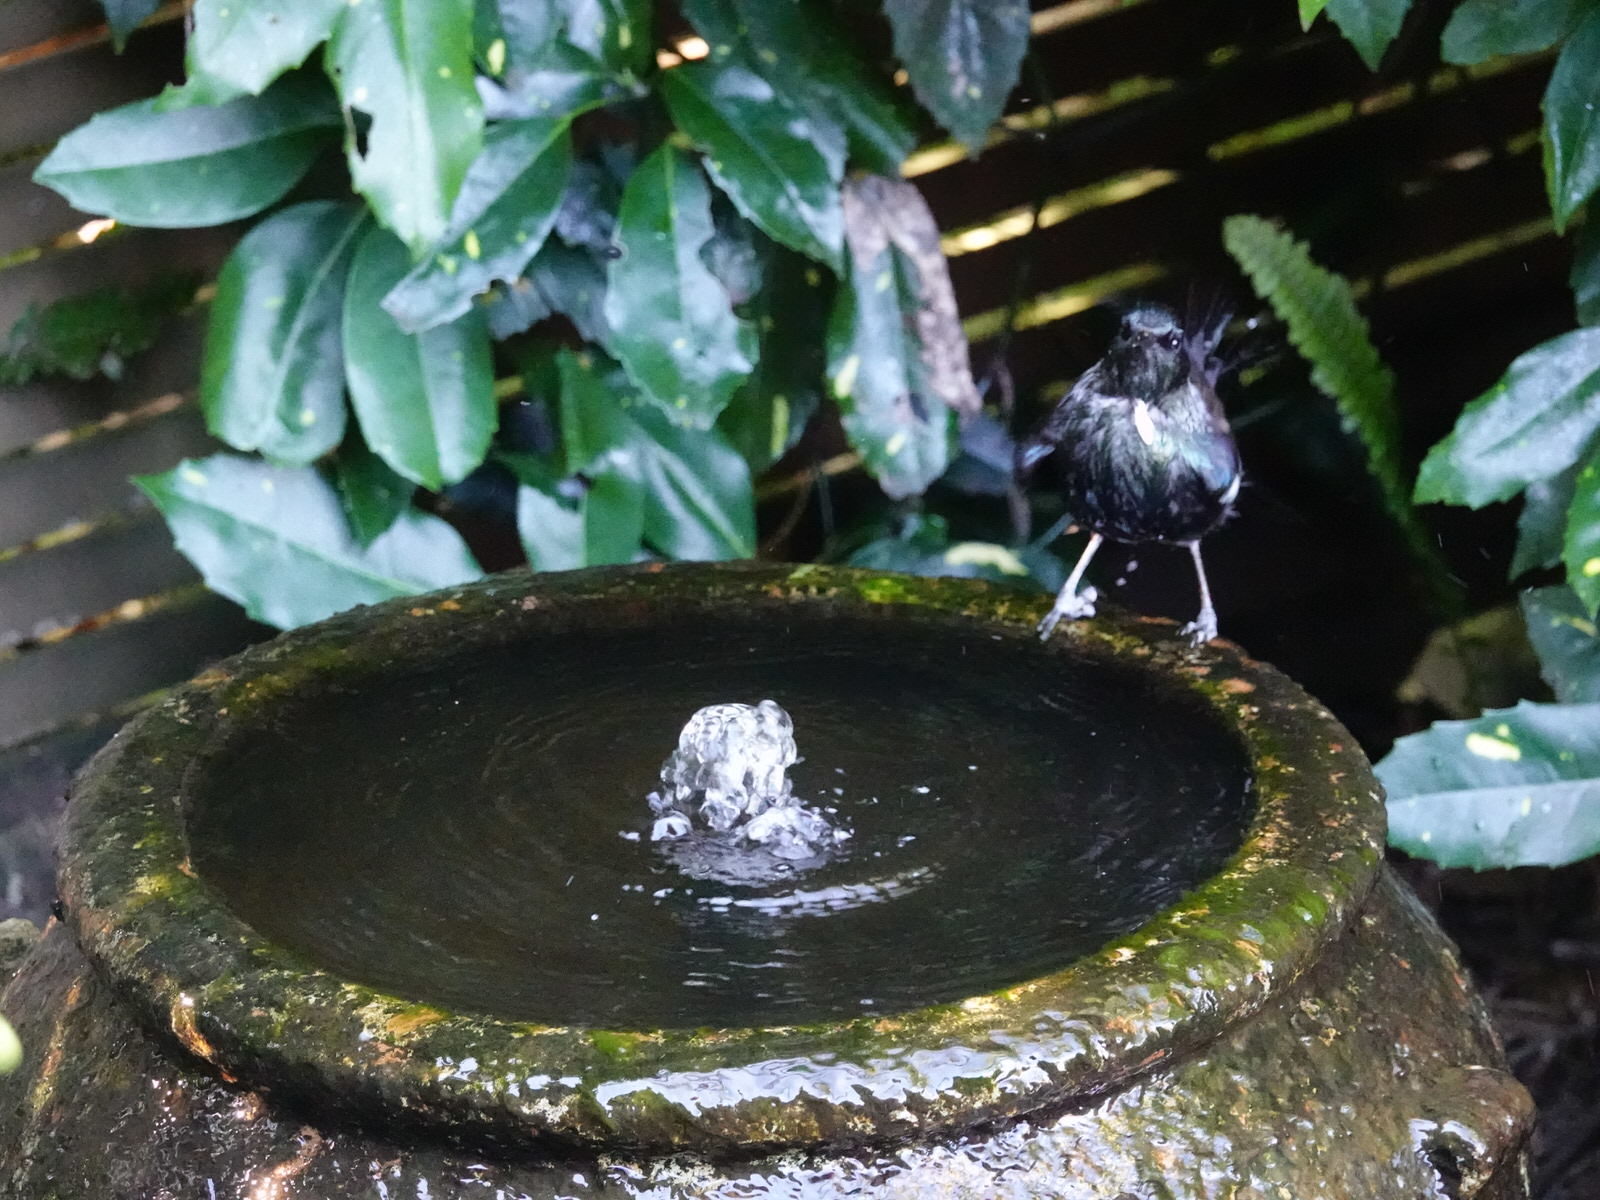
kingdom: Animalia
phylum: Chordata
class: Aves
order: Passeriformes
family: Meliphagidae
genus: Prosthemadera
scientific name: Prosthemadera novaeseelandiae
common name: Tui
